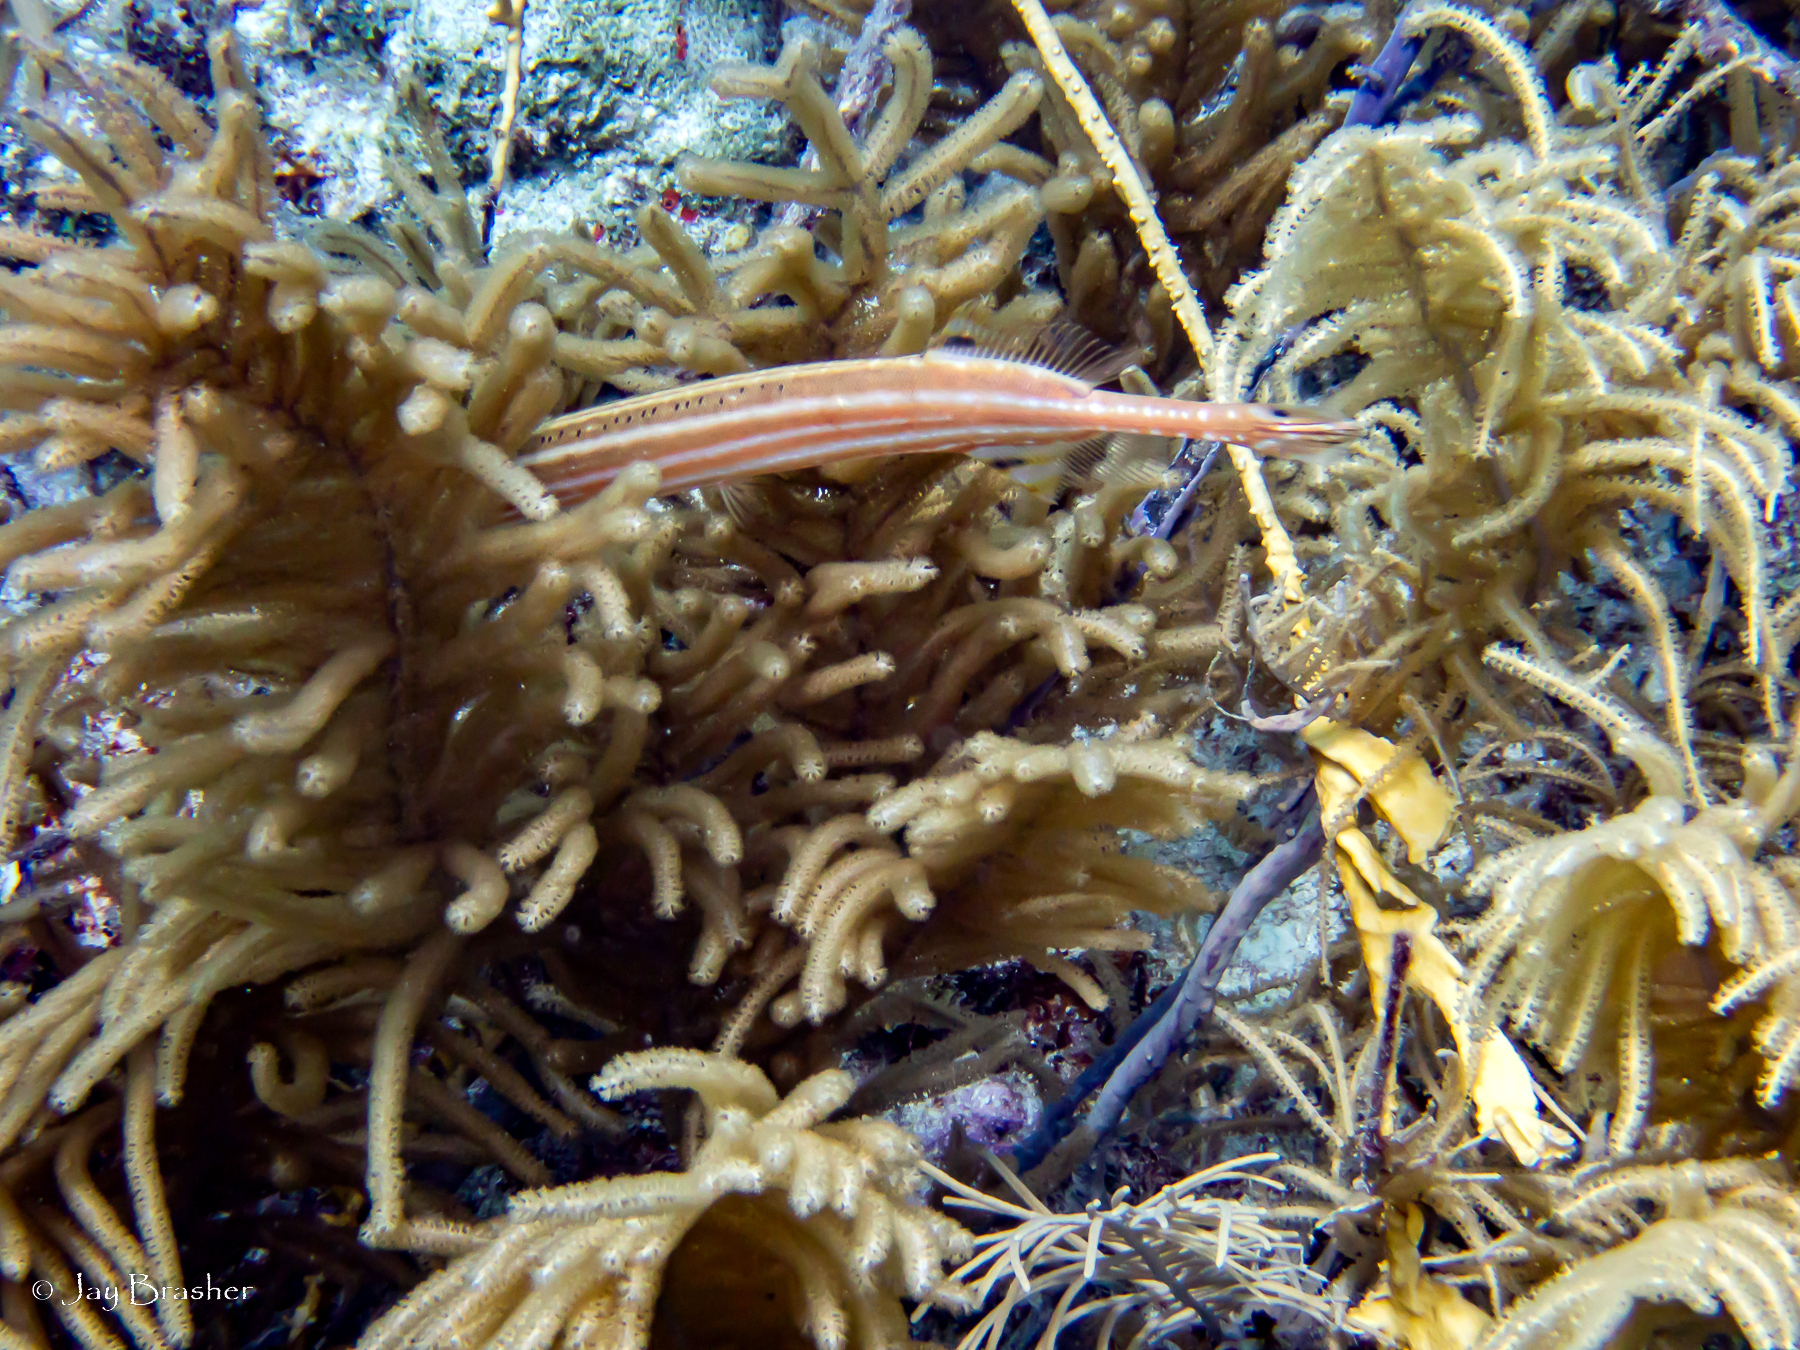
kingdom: Animalia
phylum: Chordata
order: Syngnathiformes
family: Aulostomidae
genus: Aulostomus
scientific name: Aulostomus maculatus
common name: West atlantic trumpetfish
